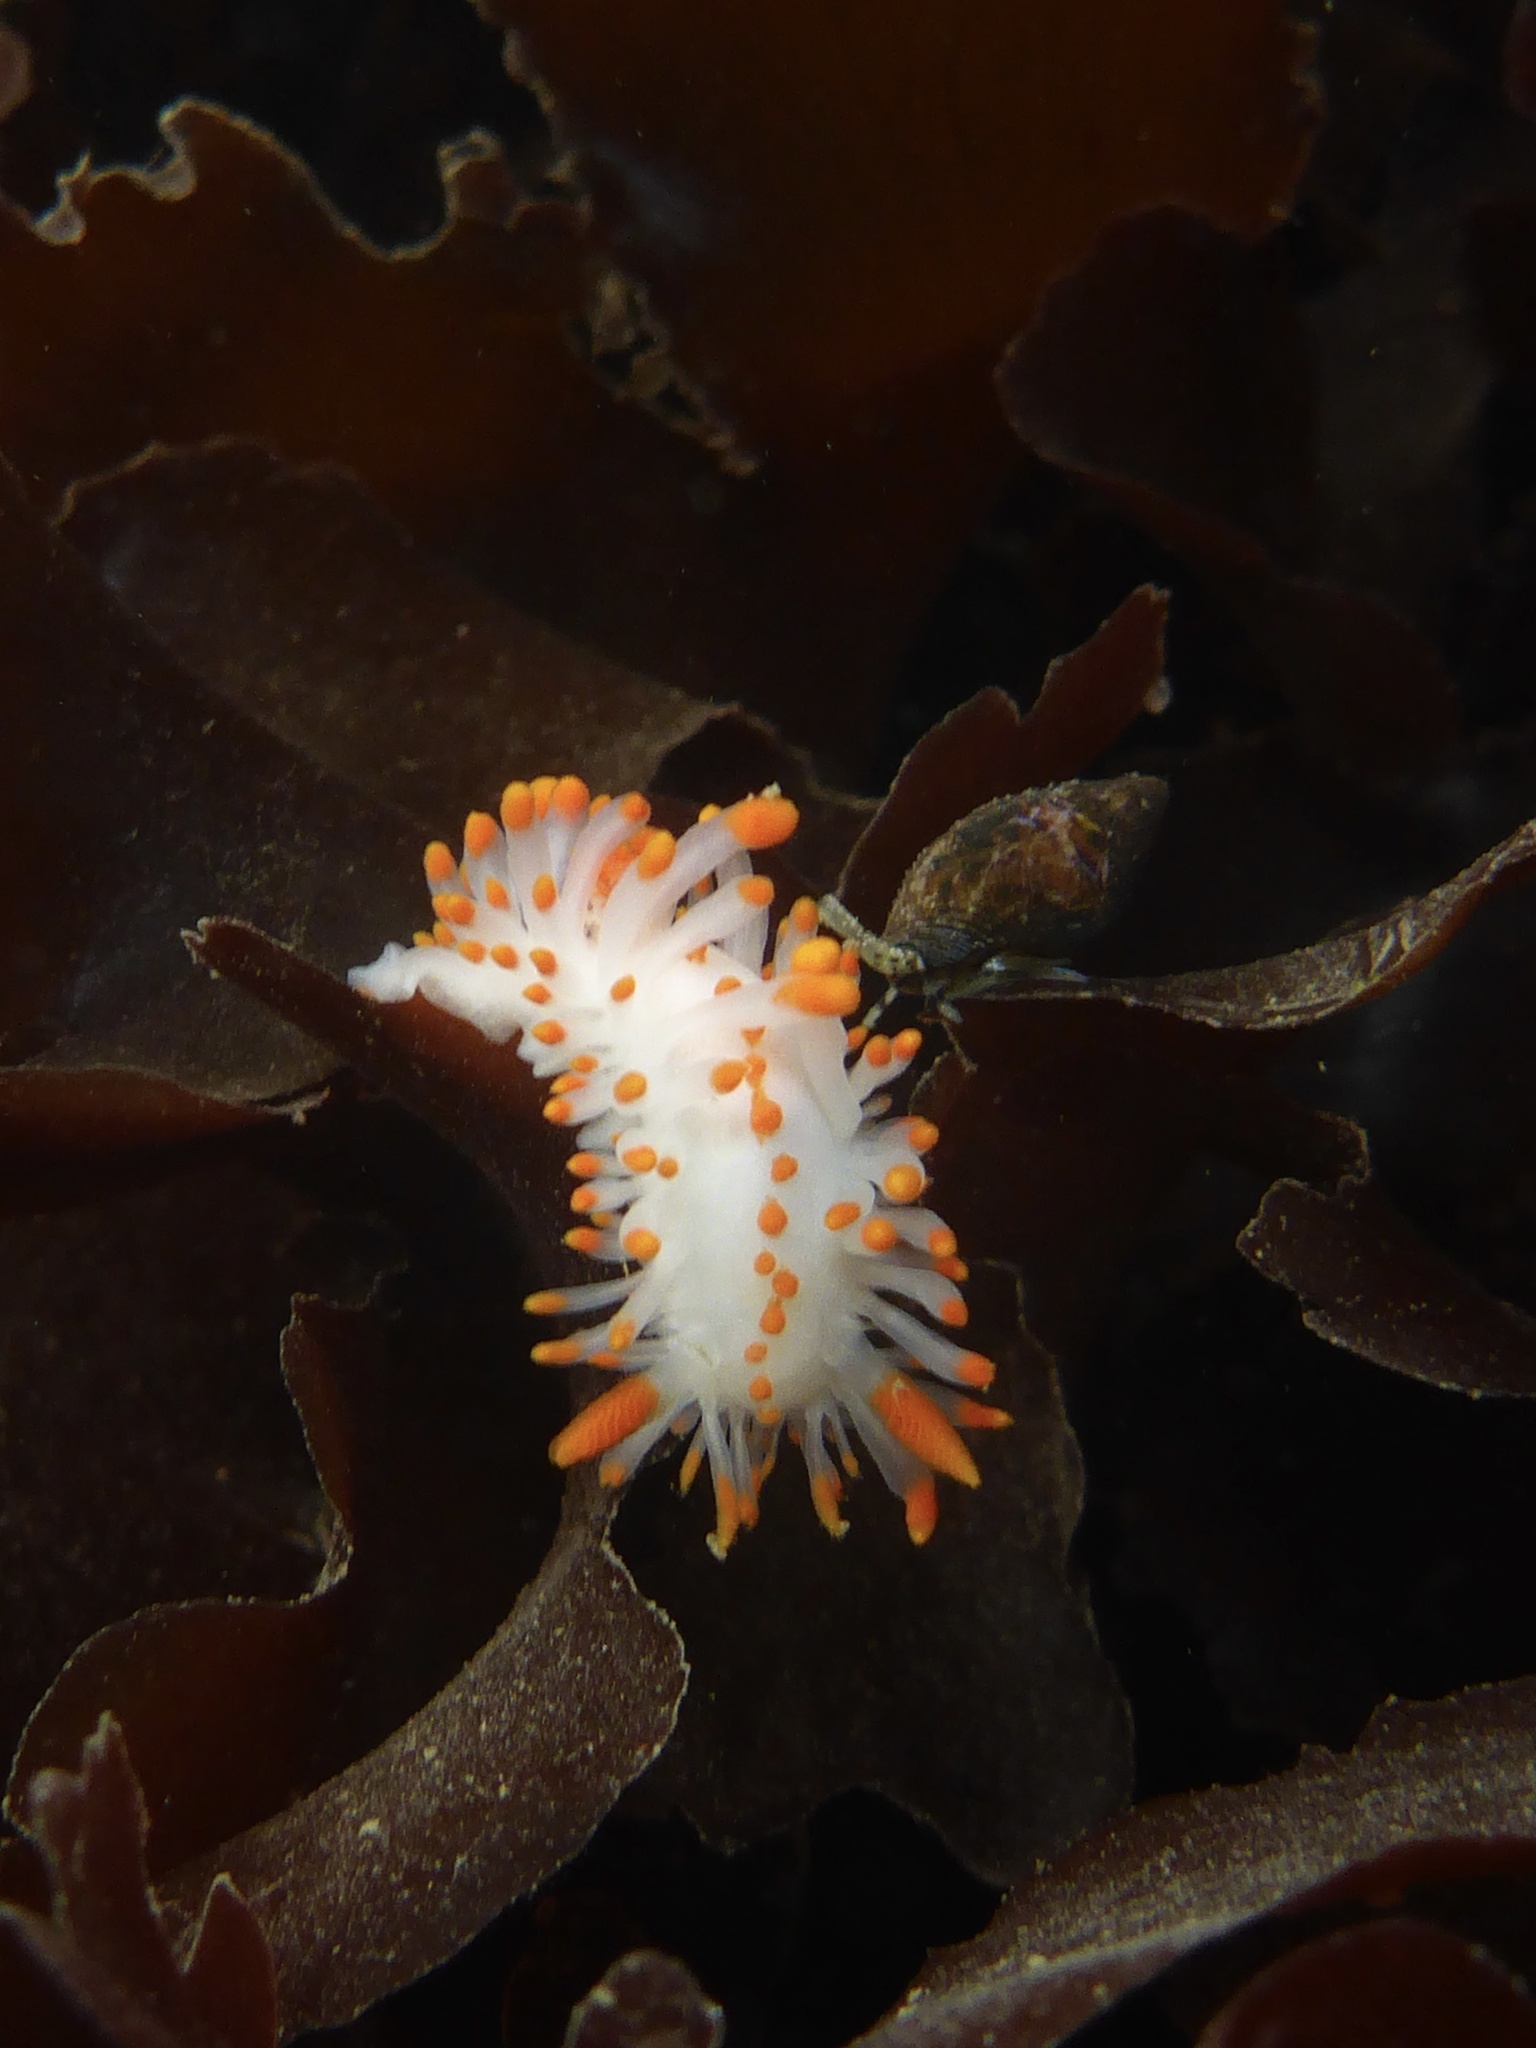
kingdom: Animalia
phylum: Mollusca
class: Gastropoda
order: Nudibranchia
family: Polyceridae
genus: Limacia
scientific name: Limacia mcdonaldi
